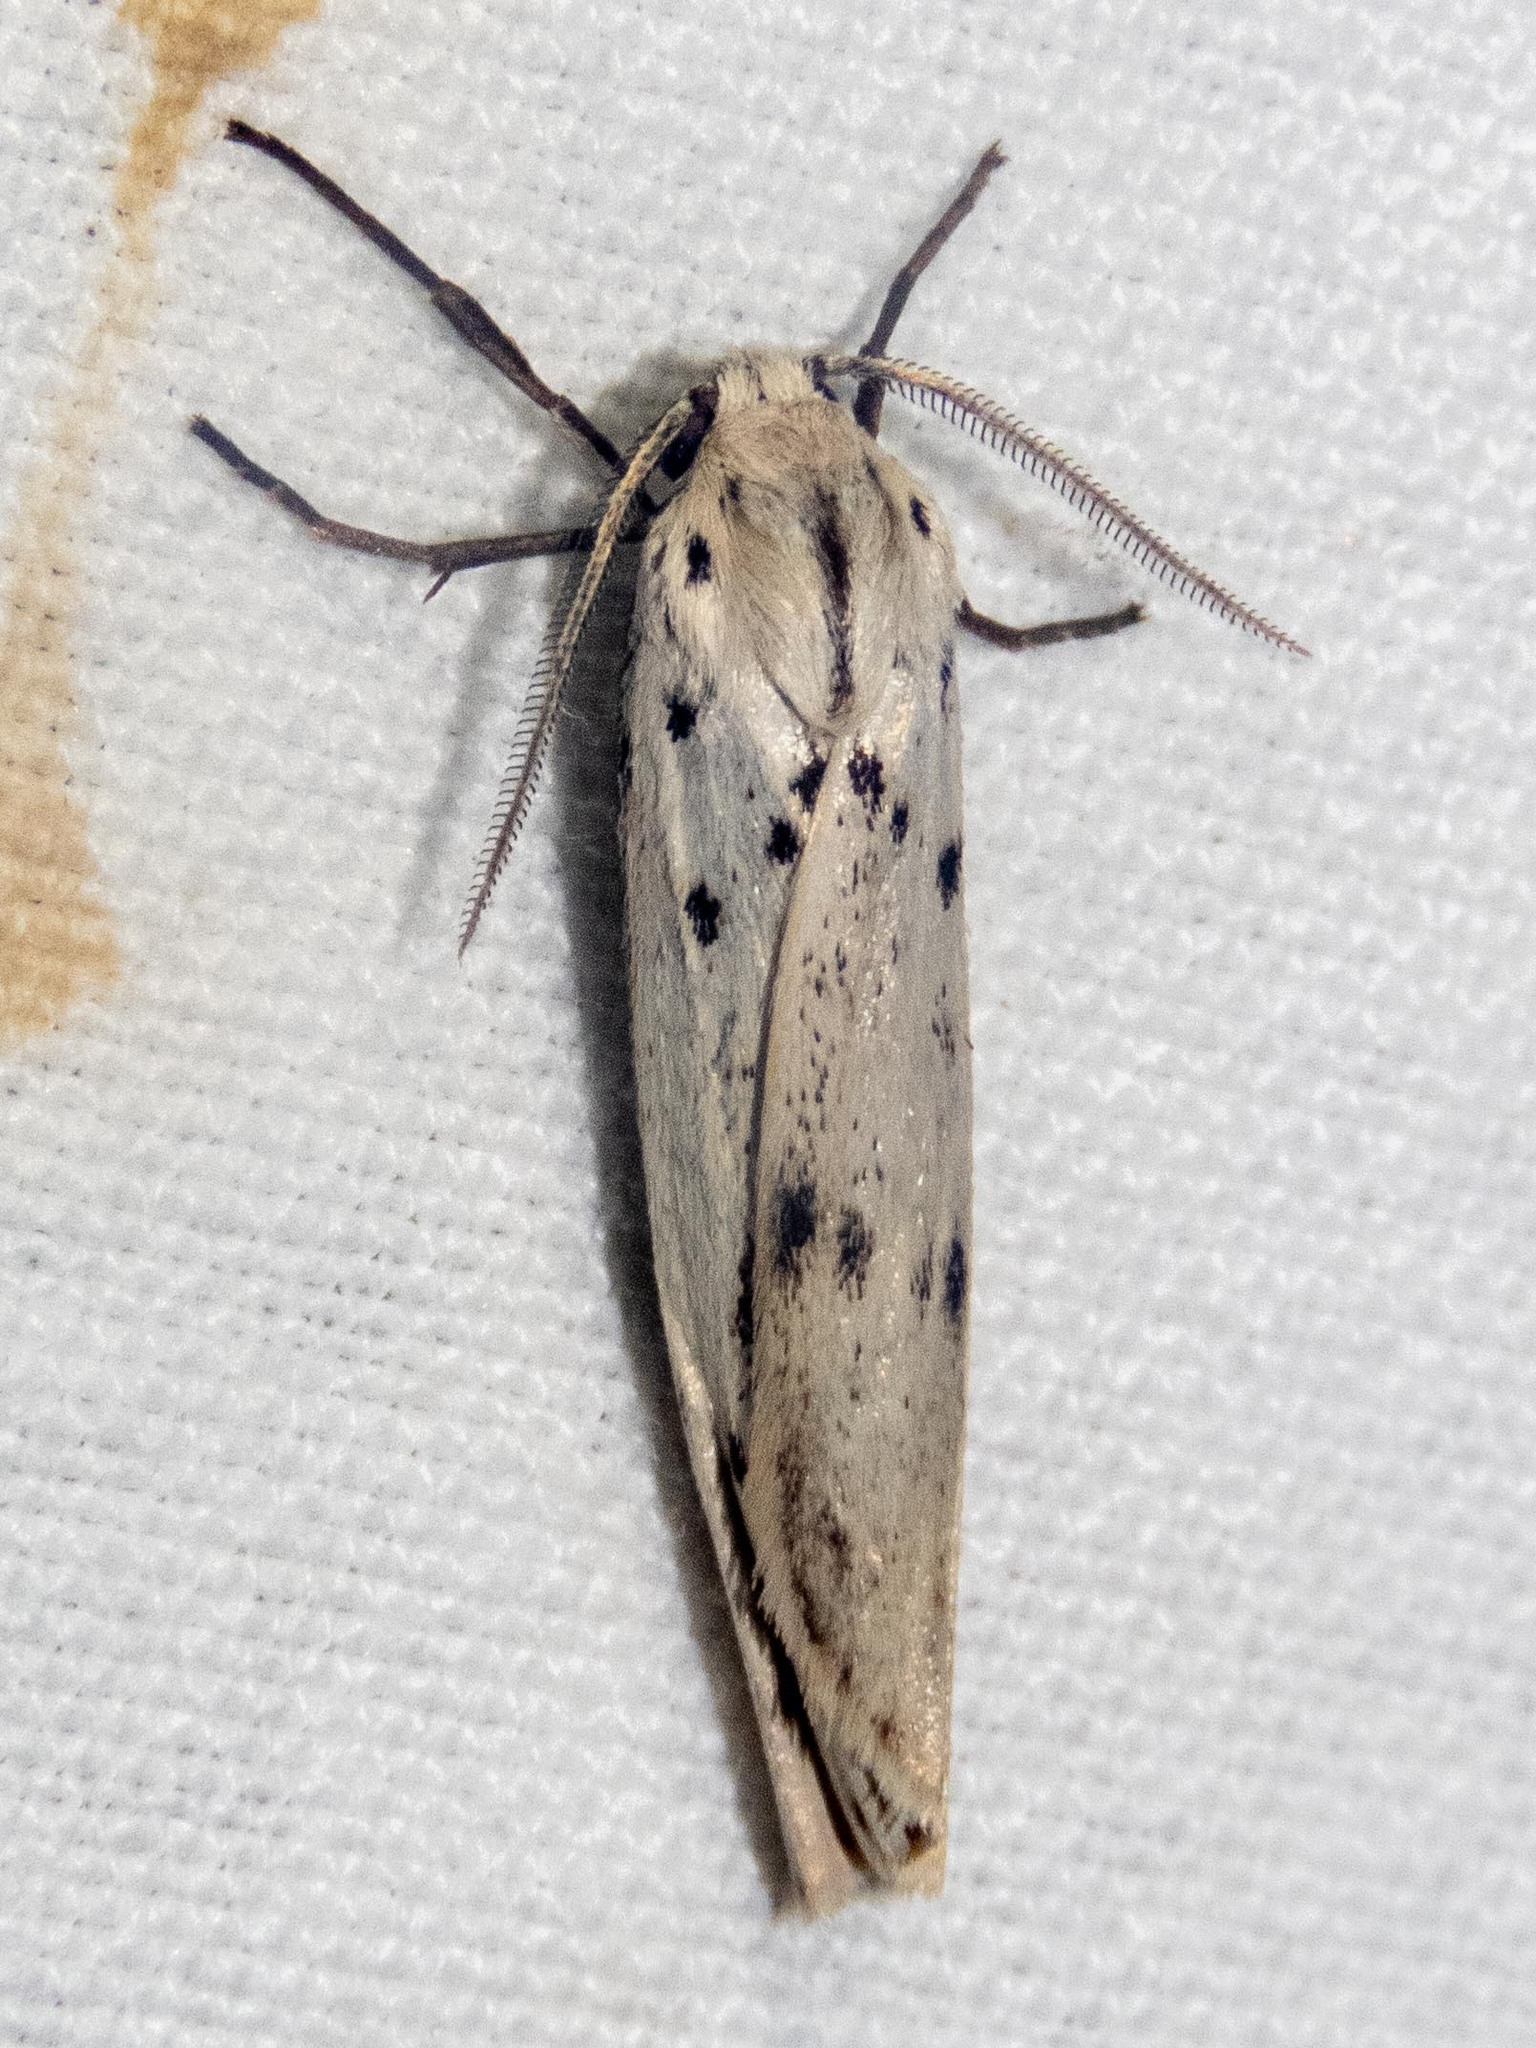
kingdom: Animalia
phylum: Arthropoda
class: Insecta
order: Lepidoptera
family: Erebidae
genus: Coscinia
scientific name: Coscinia cribraria
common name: Speckled footman
